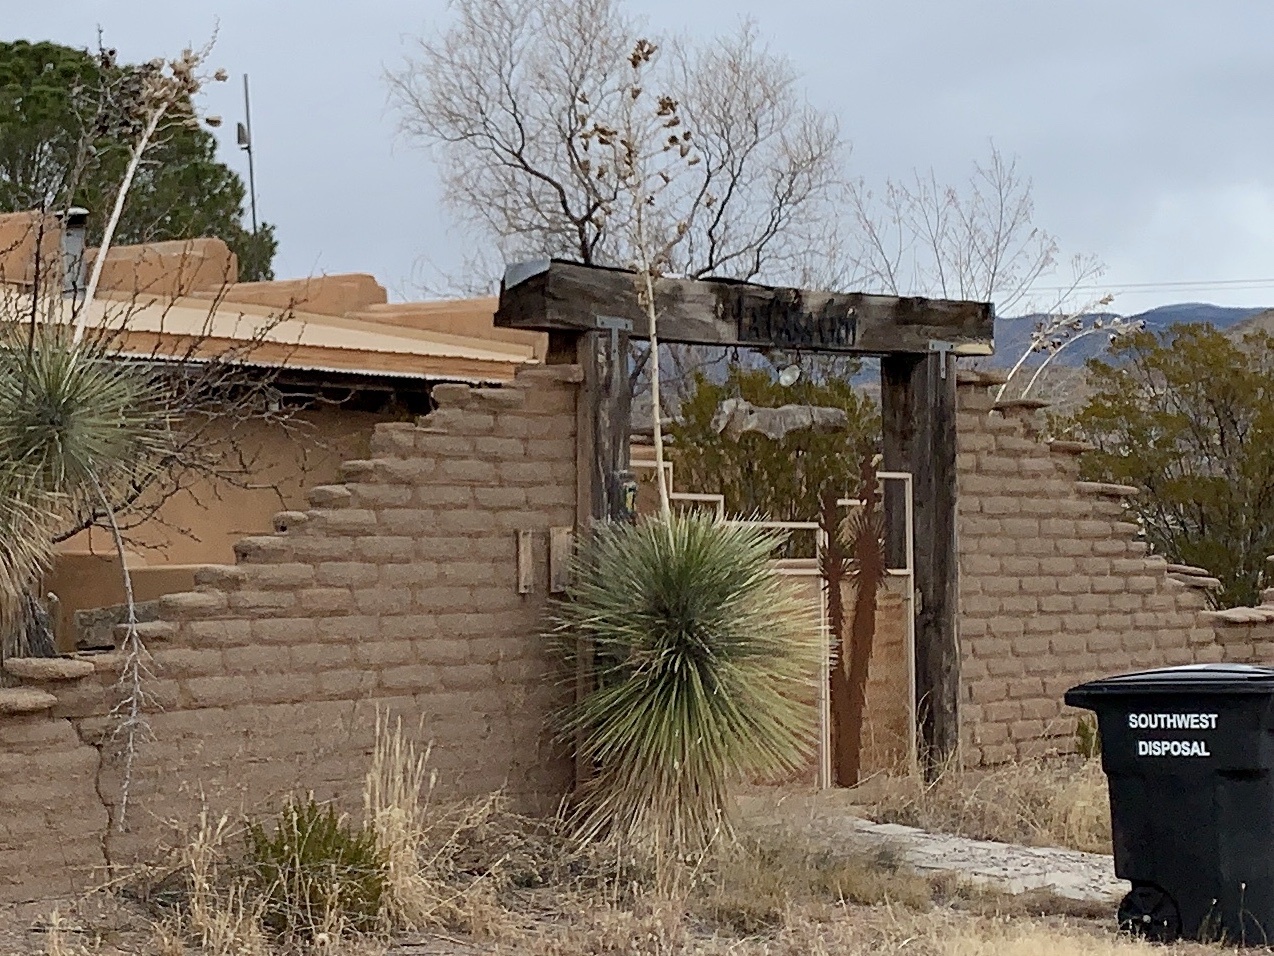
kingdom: Plantae
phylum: Tracheophyta
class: Liliopsida
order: Asparagales
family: Asparagaceae
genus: Yucca
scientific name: Yucca elata
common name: Palmella
